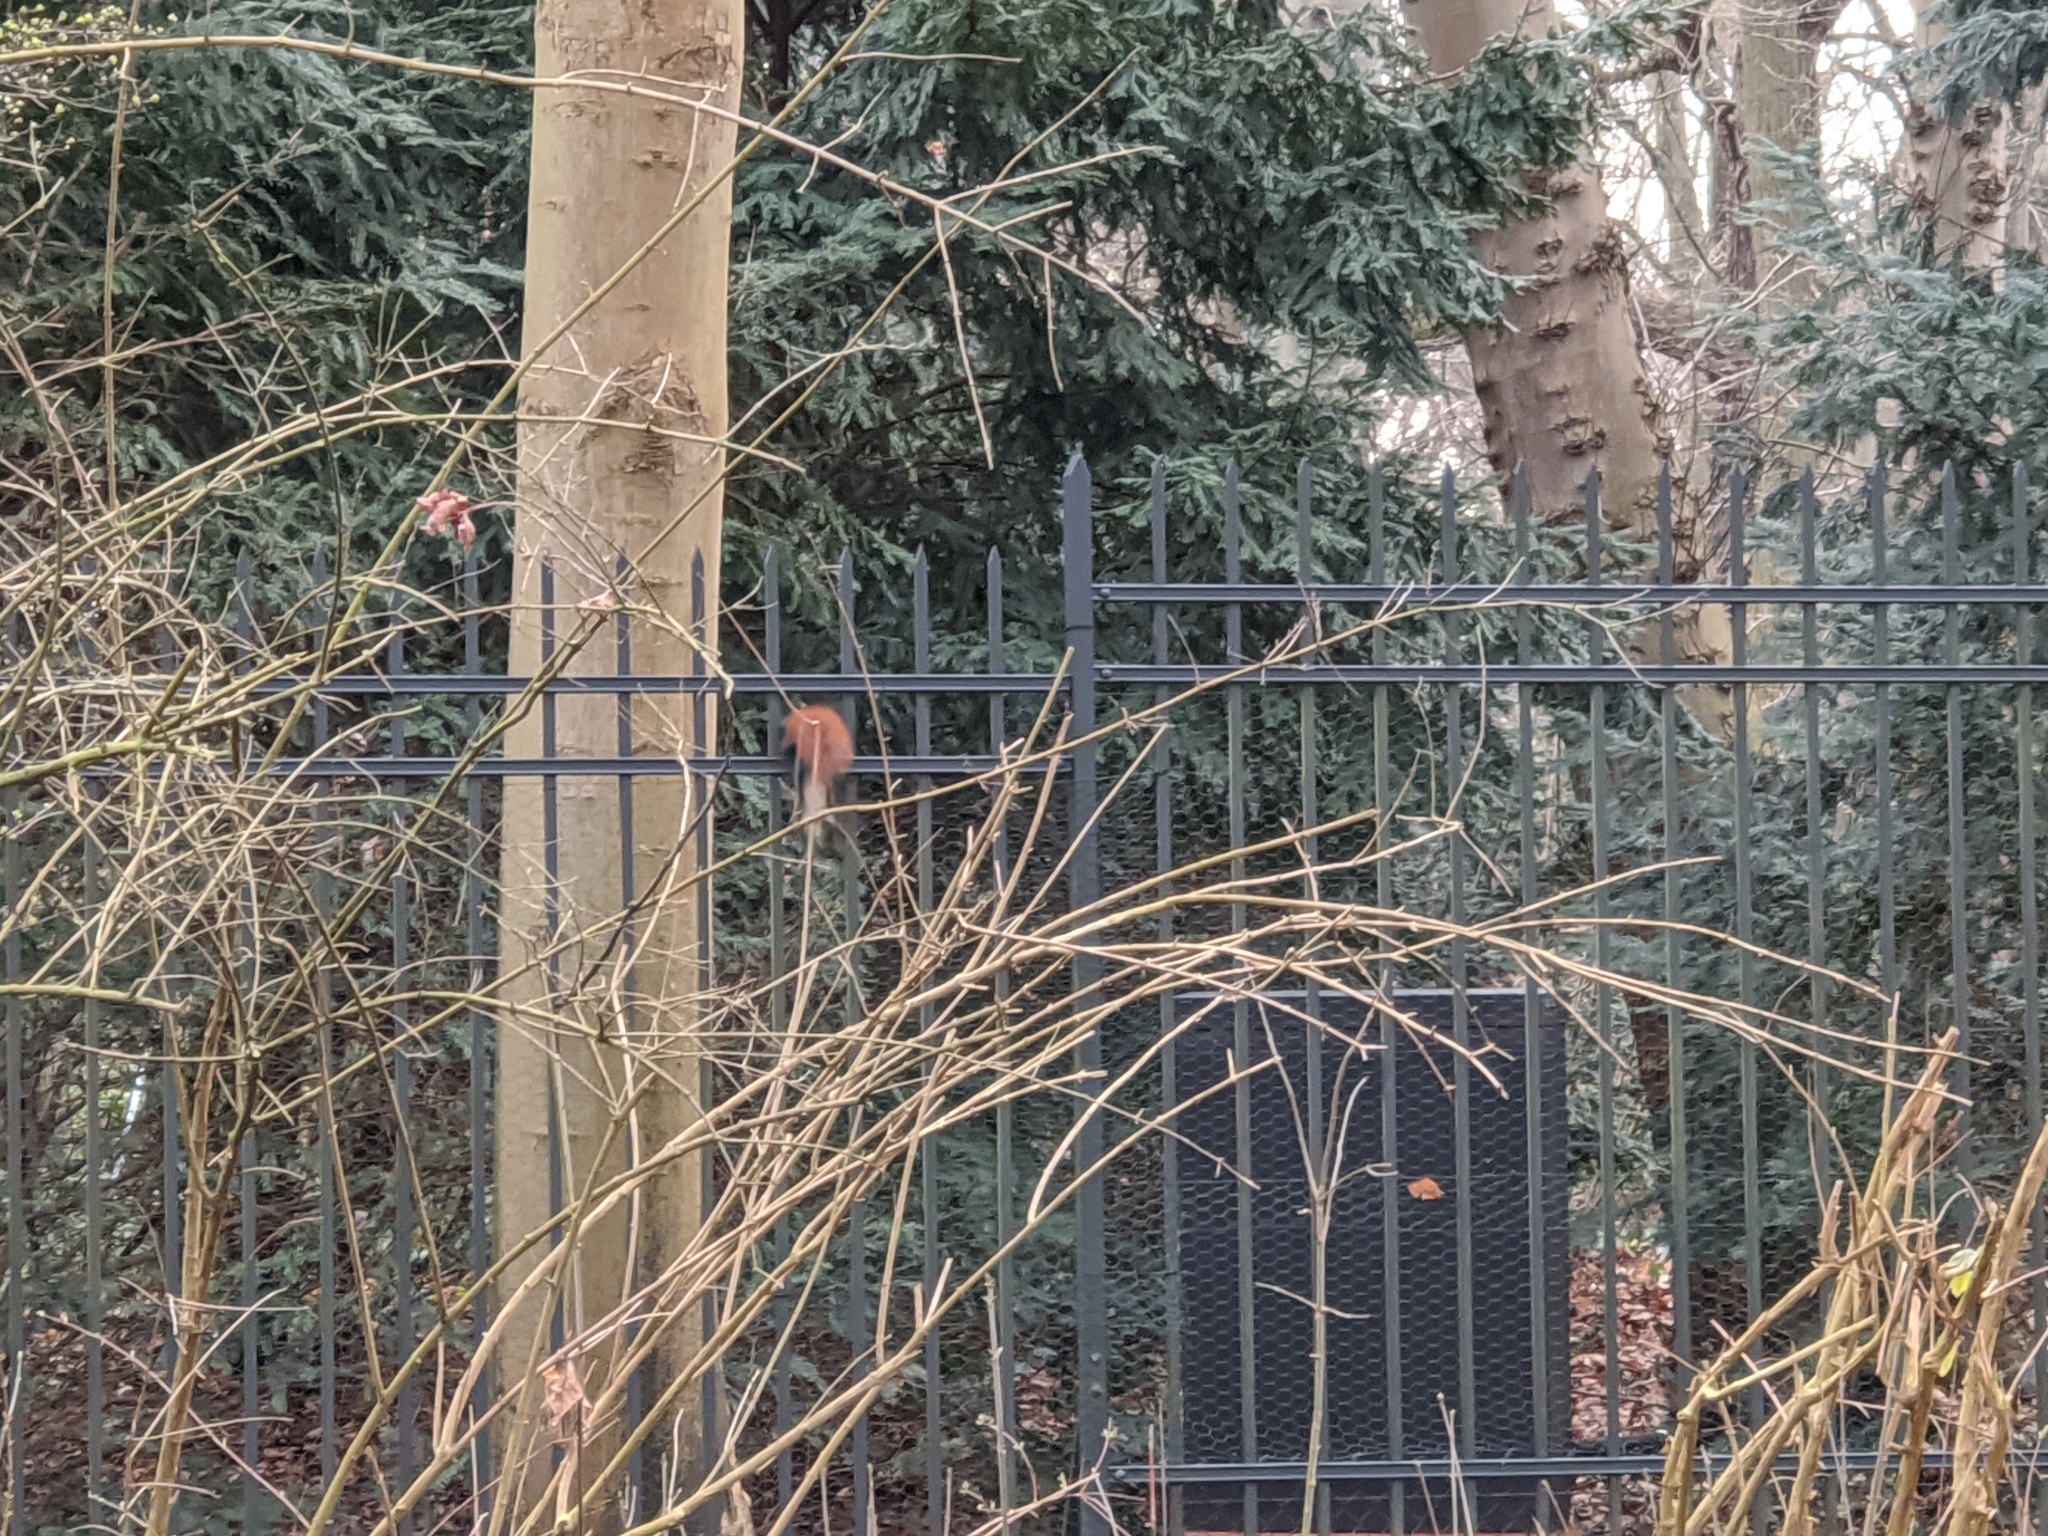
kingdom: Animalia
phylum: Chordata
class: Mammalia
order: Rodentia
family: Sciuridae
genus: Sciurus
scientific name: Sciurus vulgaris
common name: Eurasian red squirrel
